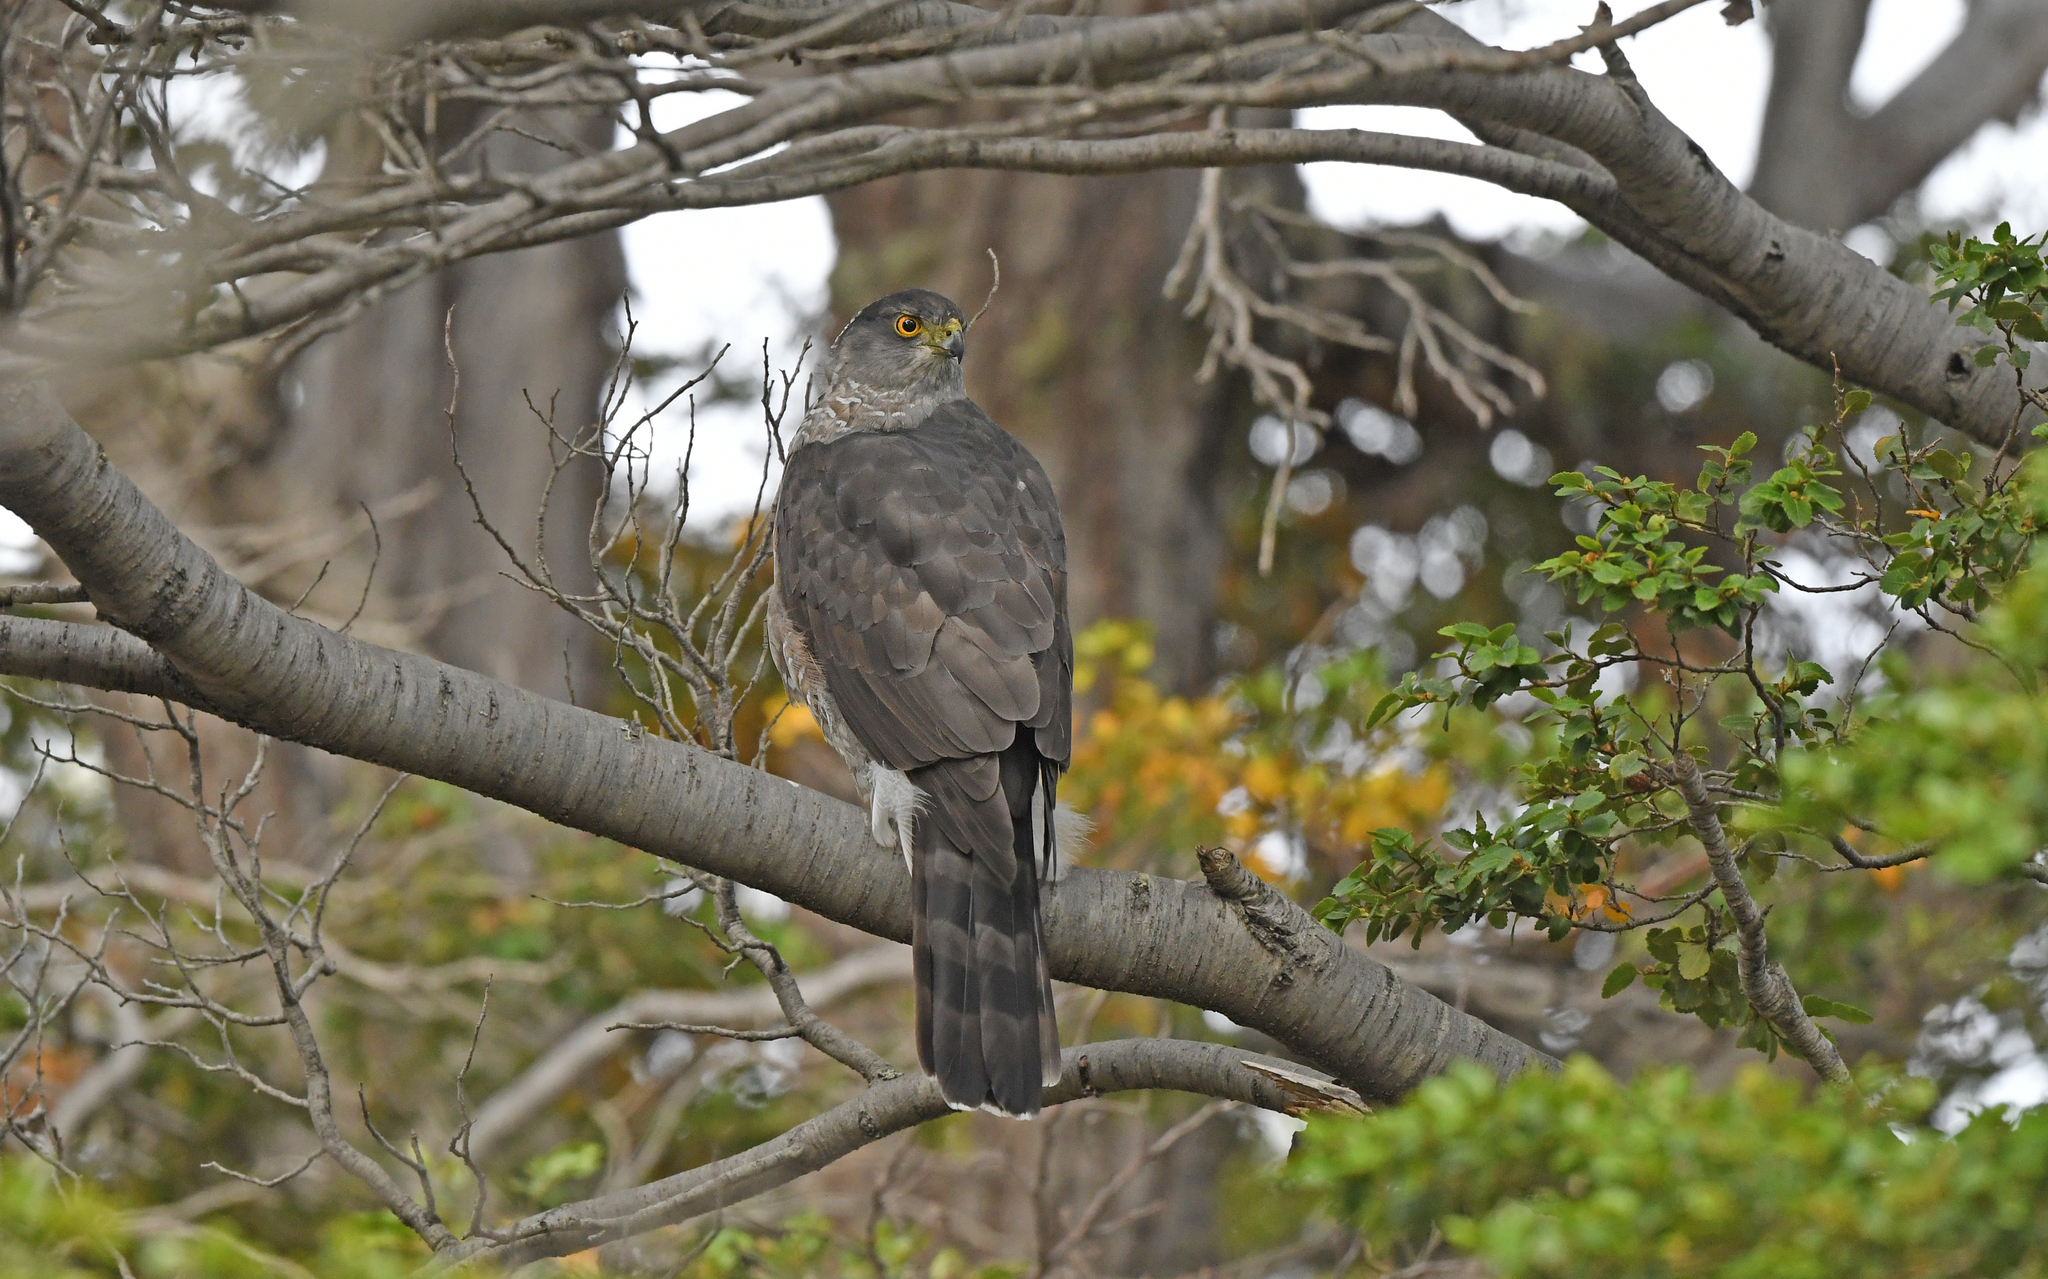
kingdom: Animalia
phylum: Chordata
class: Aves
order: Accipitriformes
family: Accipitridae
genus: Accipiter
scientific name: Accipiter chilensis
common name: Chilean hawk
